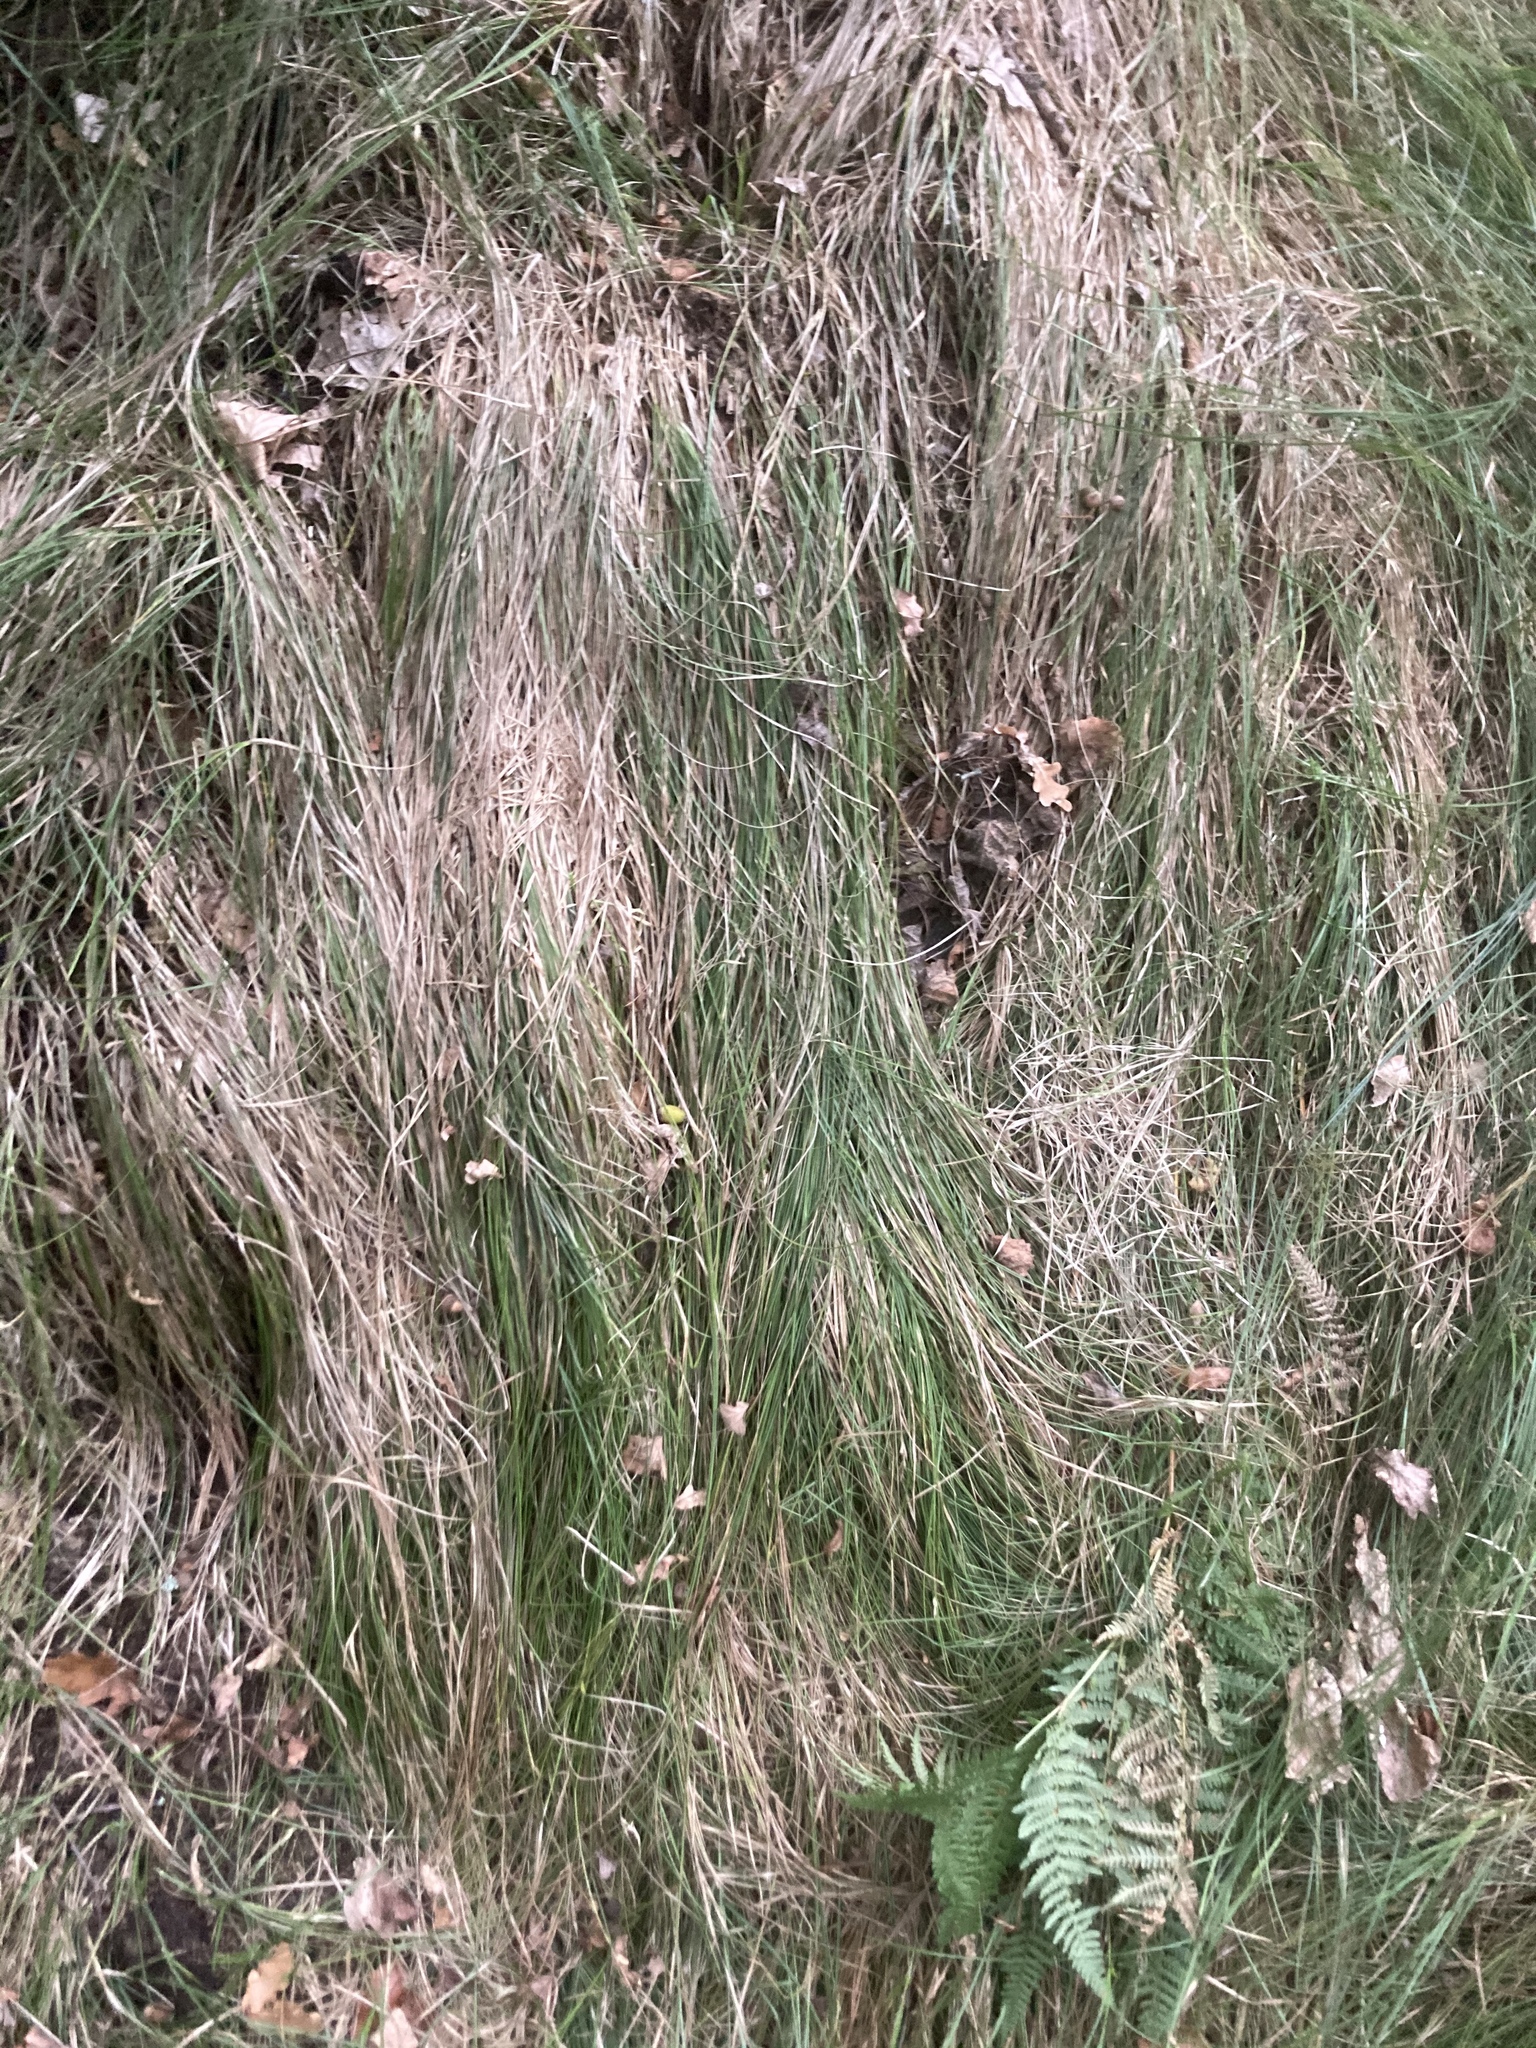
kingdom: Plantae
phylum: Tracheophyta
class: Liliopsida
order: Poales
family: Cyperaceae
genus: Carex
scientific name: Carex brizoides
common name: Quaking-grass sedge
